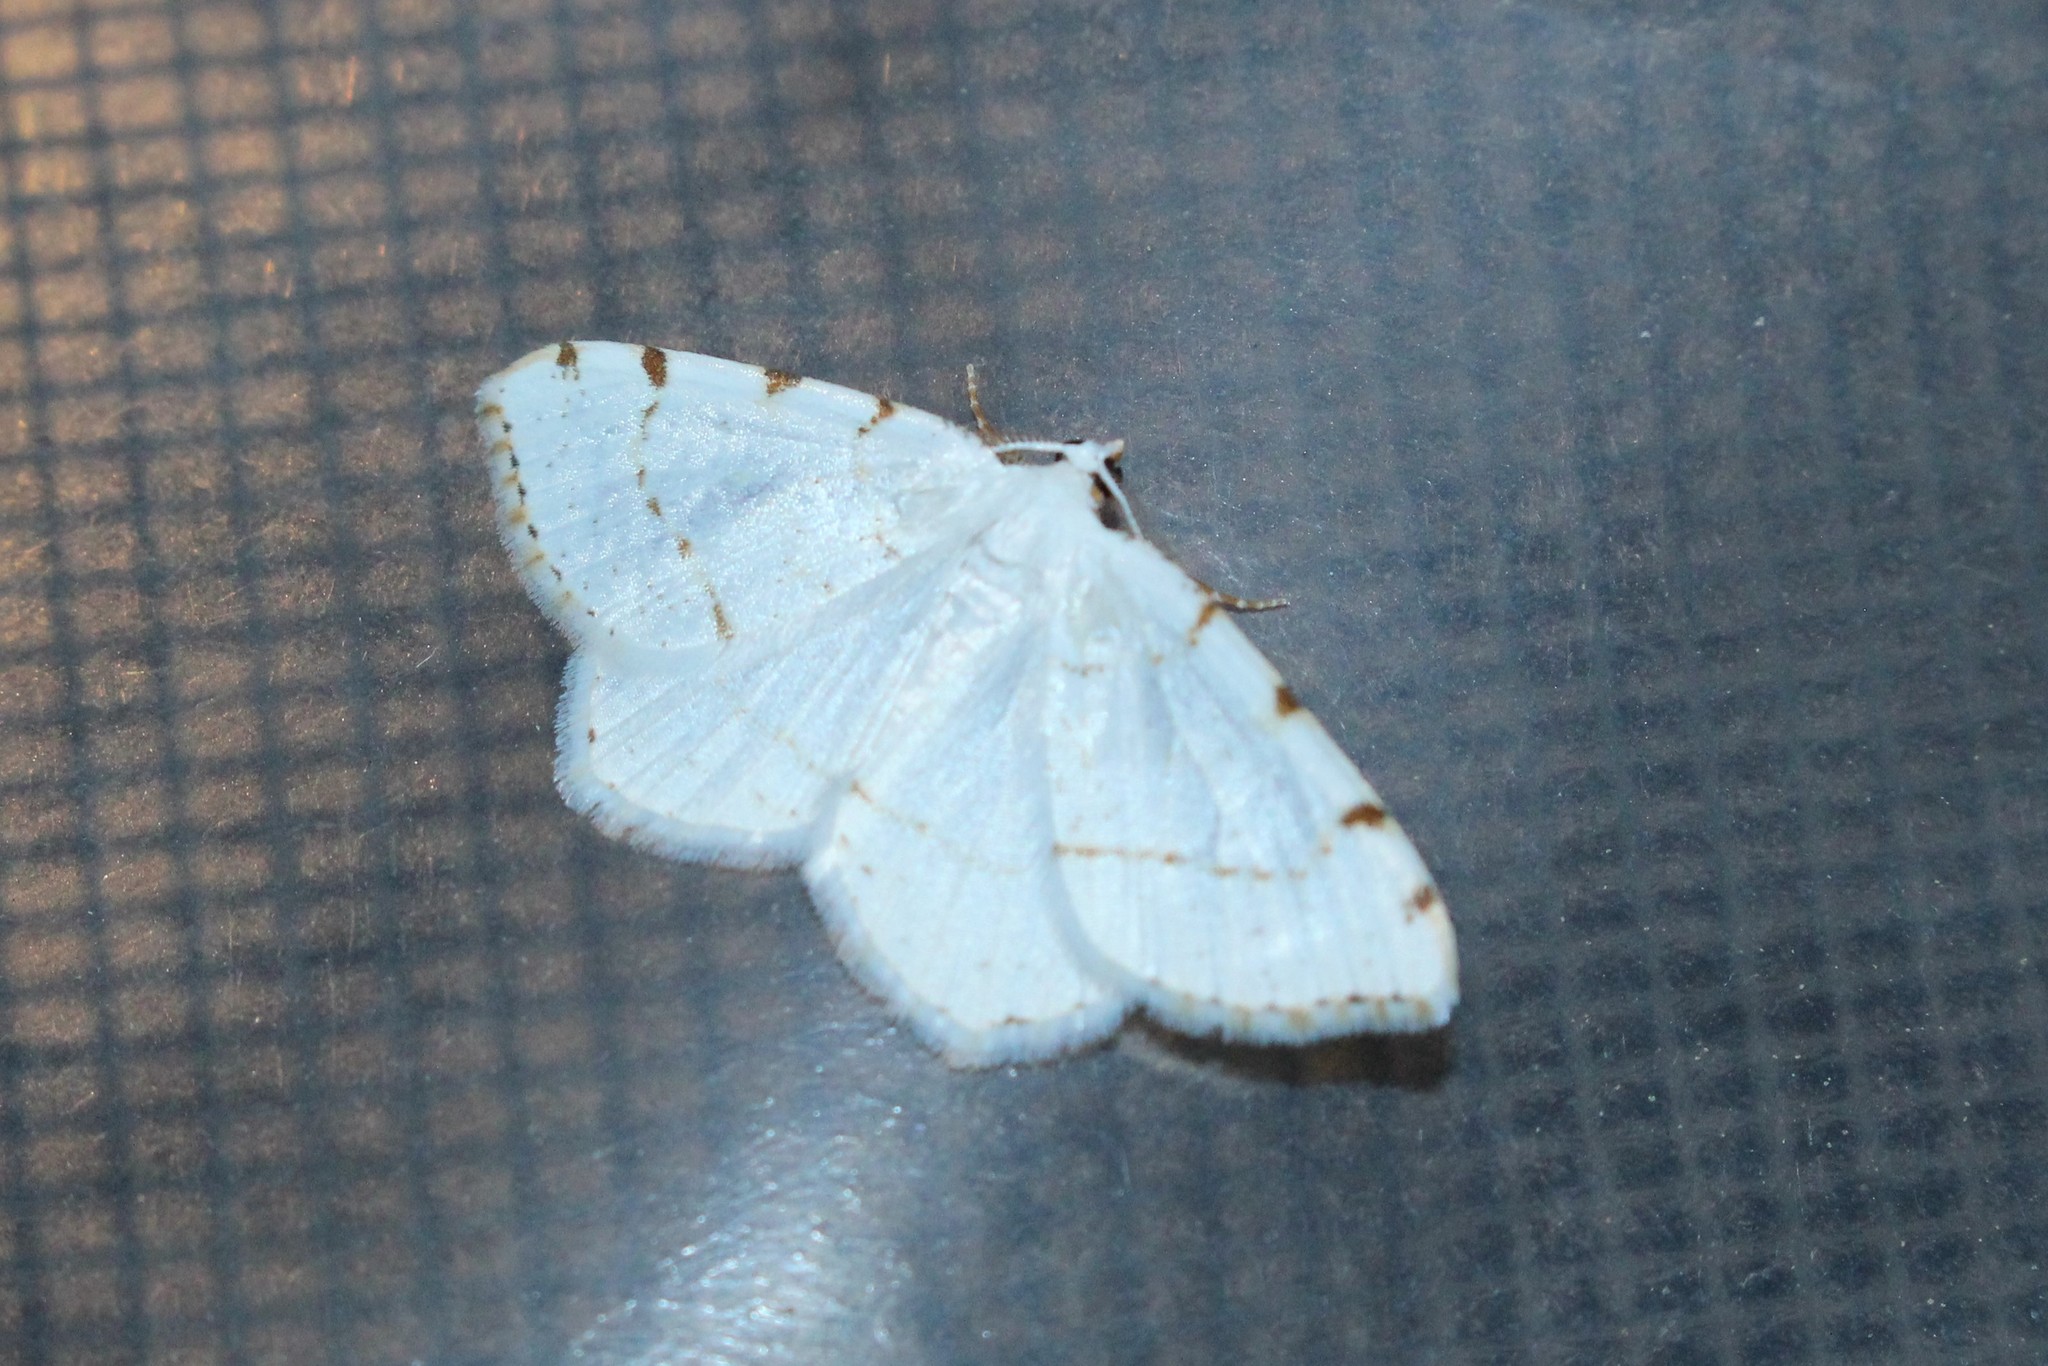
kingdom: Animalia
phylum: Arthropoda
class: Insecta
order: Lepidoptera
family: Geometridae
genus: Macaria
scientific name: Macaria pustularia
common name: Lesser maple spanworm moth
